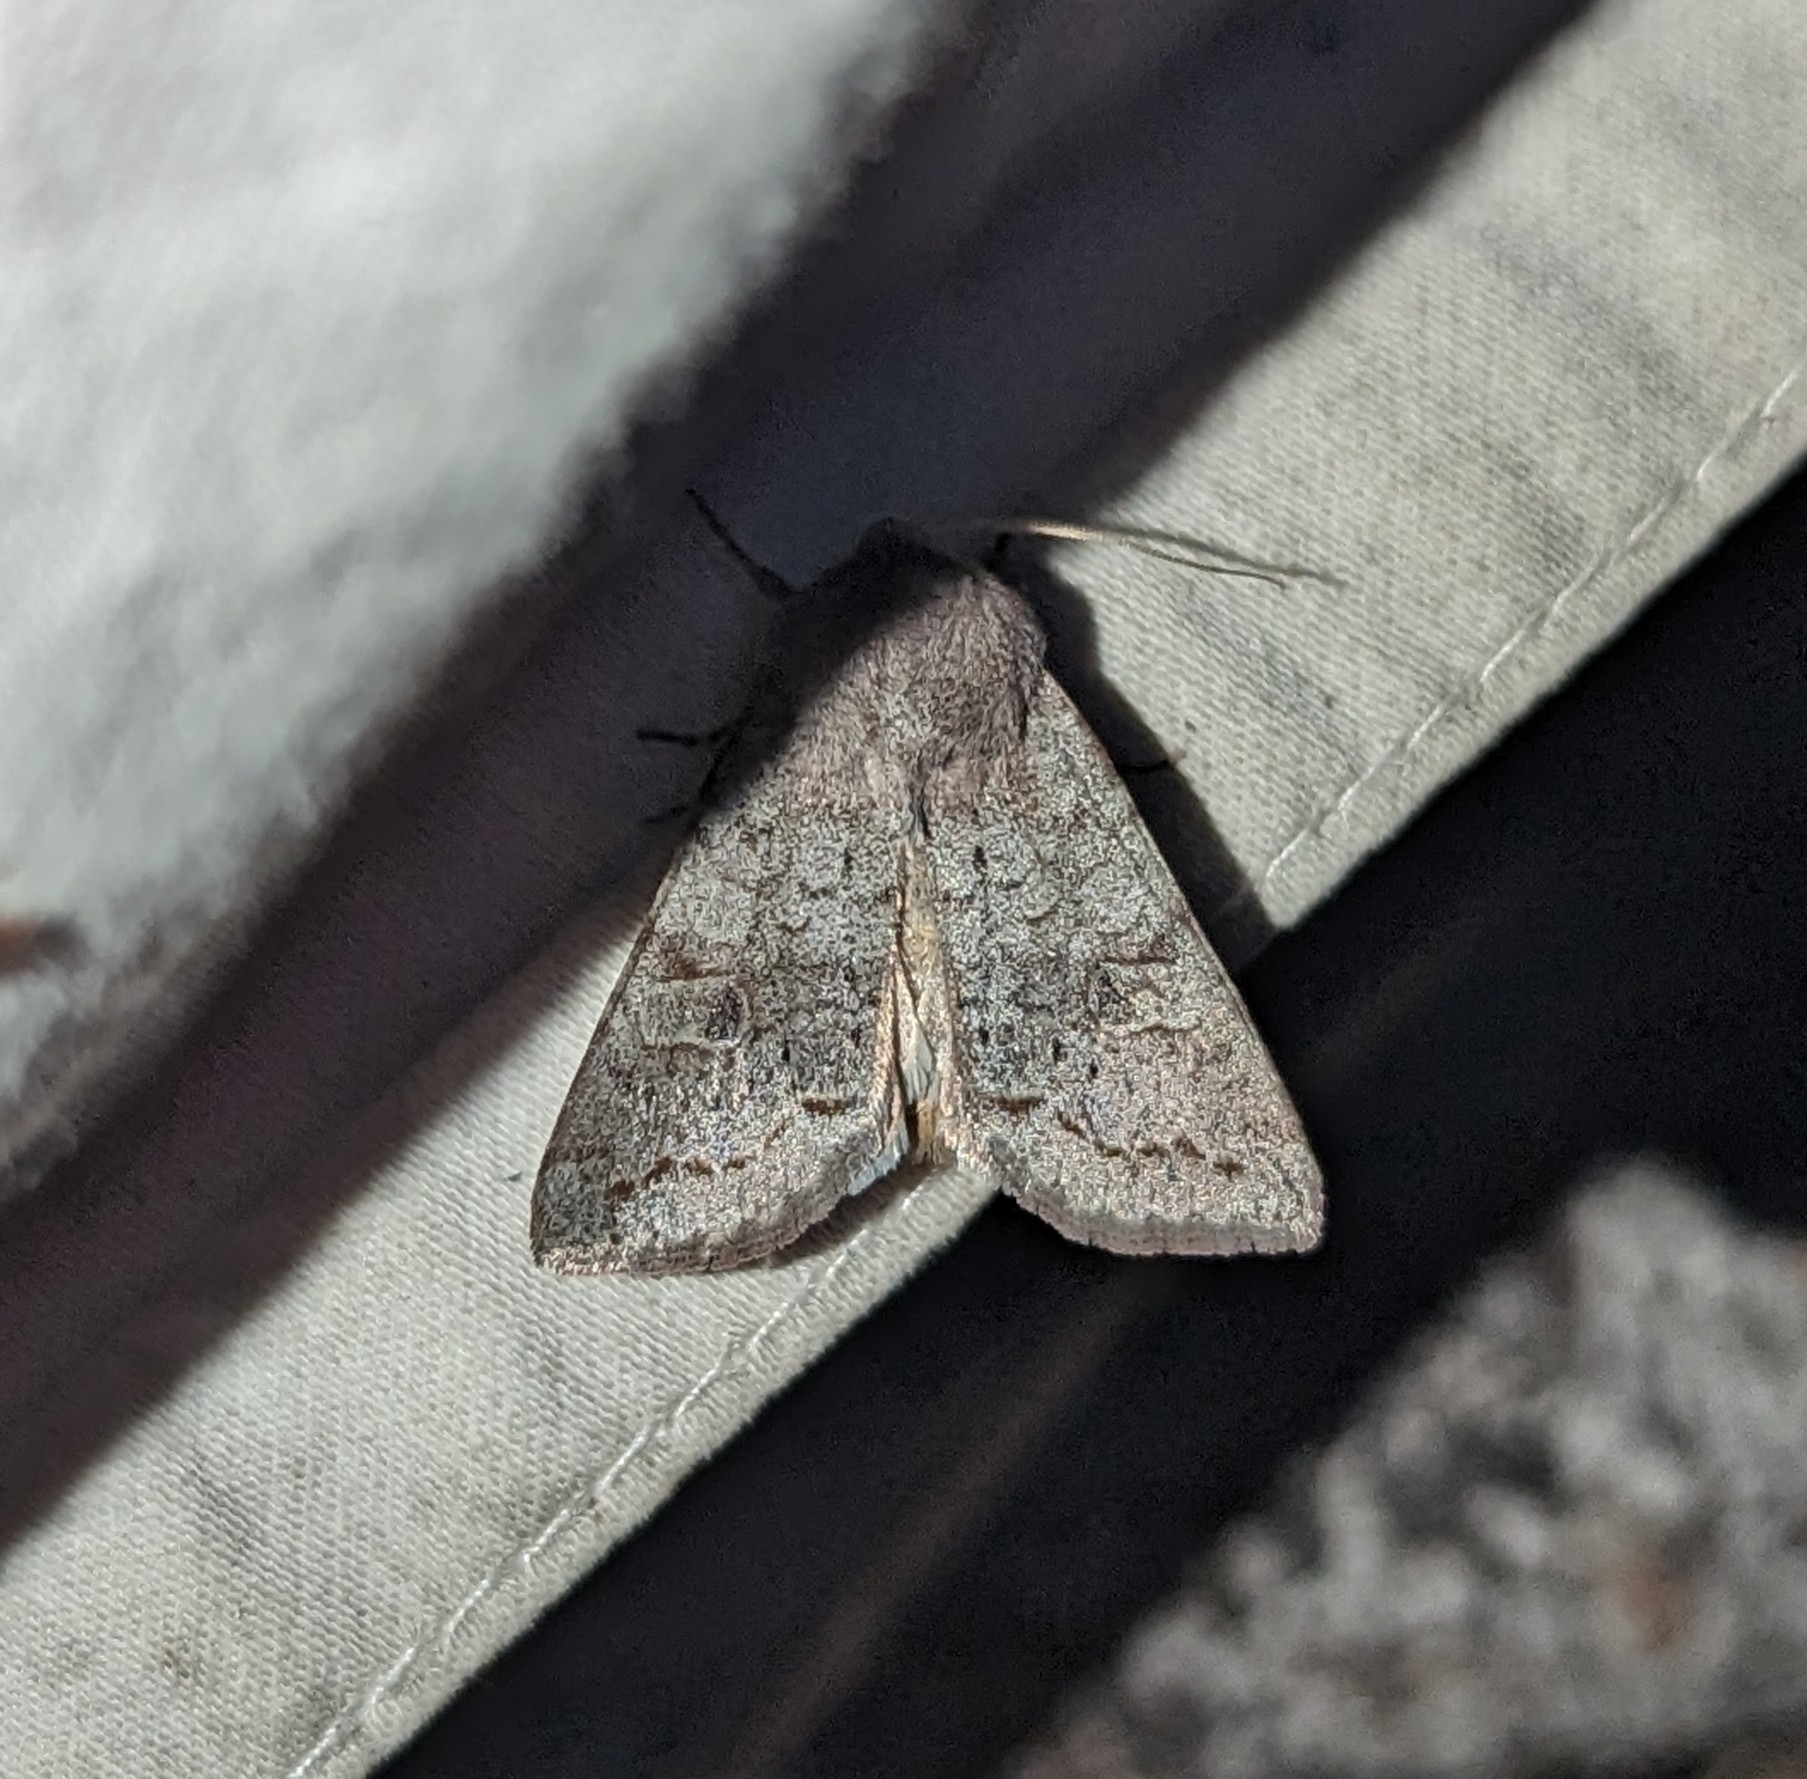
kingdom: Animalia
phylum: Arthropoda
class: Insecta
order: Lepidoptera
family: Noctuidae
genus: Orthosia
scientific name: Orthosia revicta
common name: Rusty whitesided caterpillar
